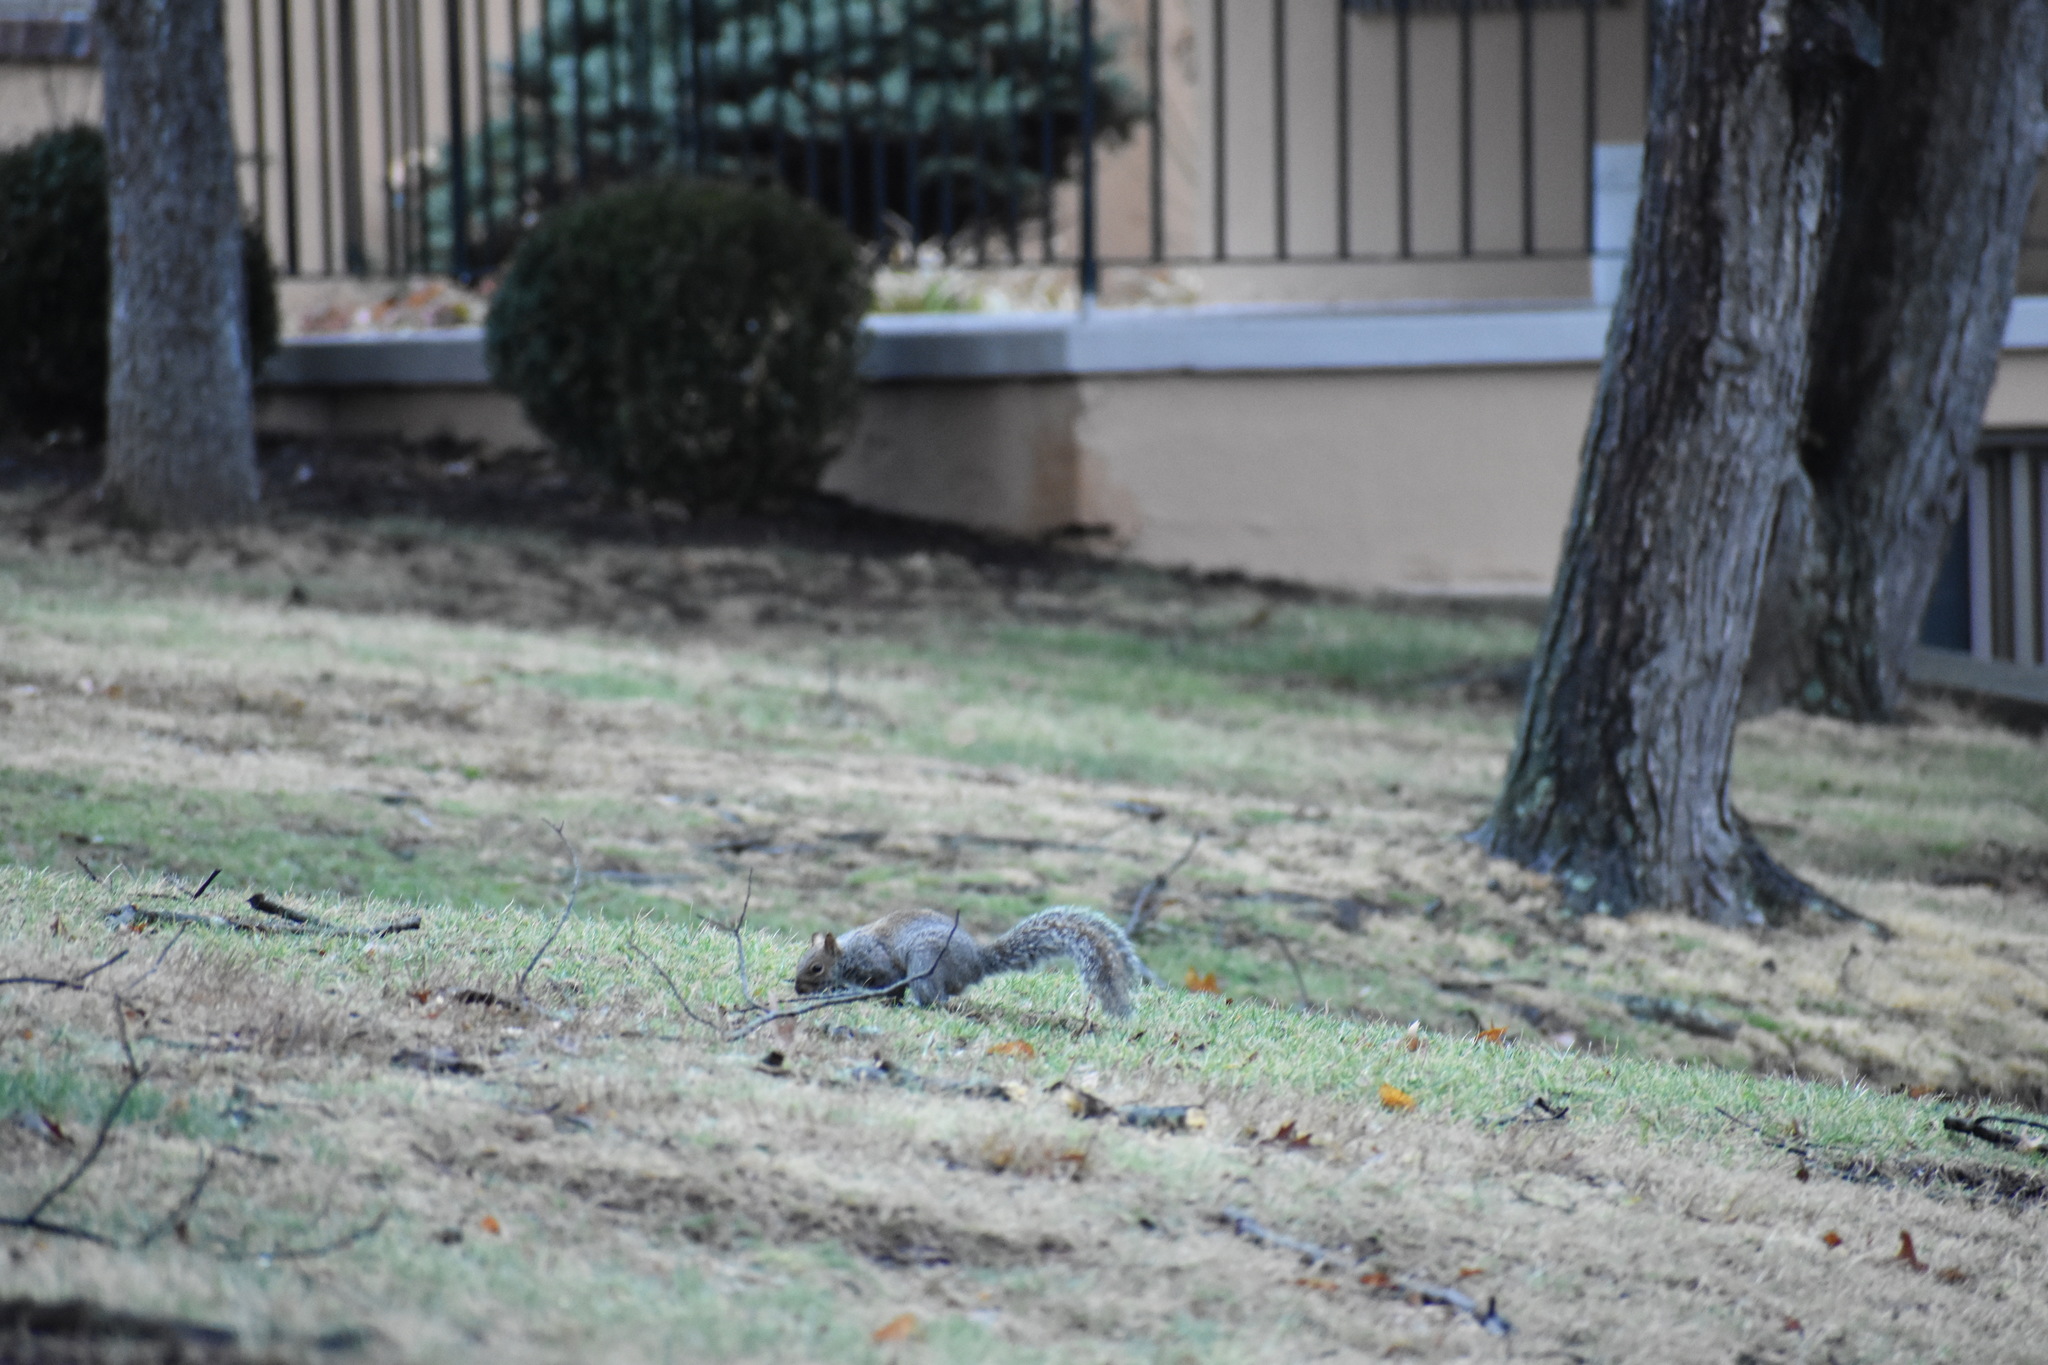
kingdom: Animalia
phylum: Chordata
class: Mammalia
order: Rodentia
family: Sciuridae
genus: Sciurus
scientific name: Sciurus carolinensis
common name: Eastern gray squirrel
